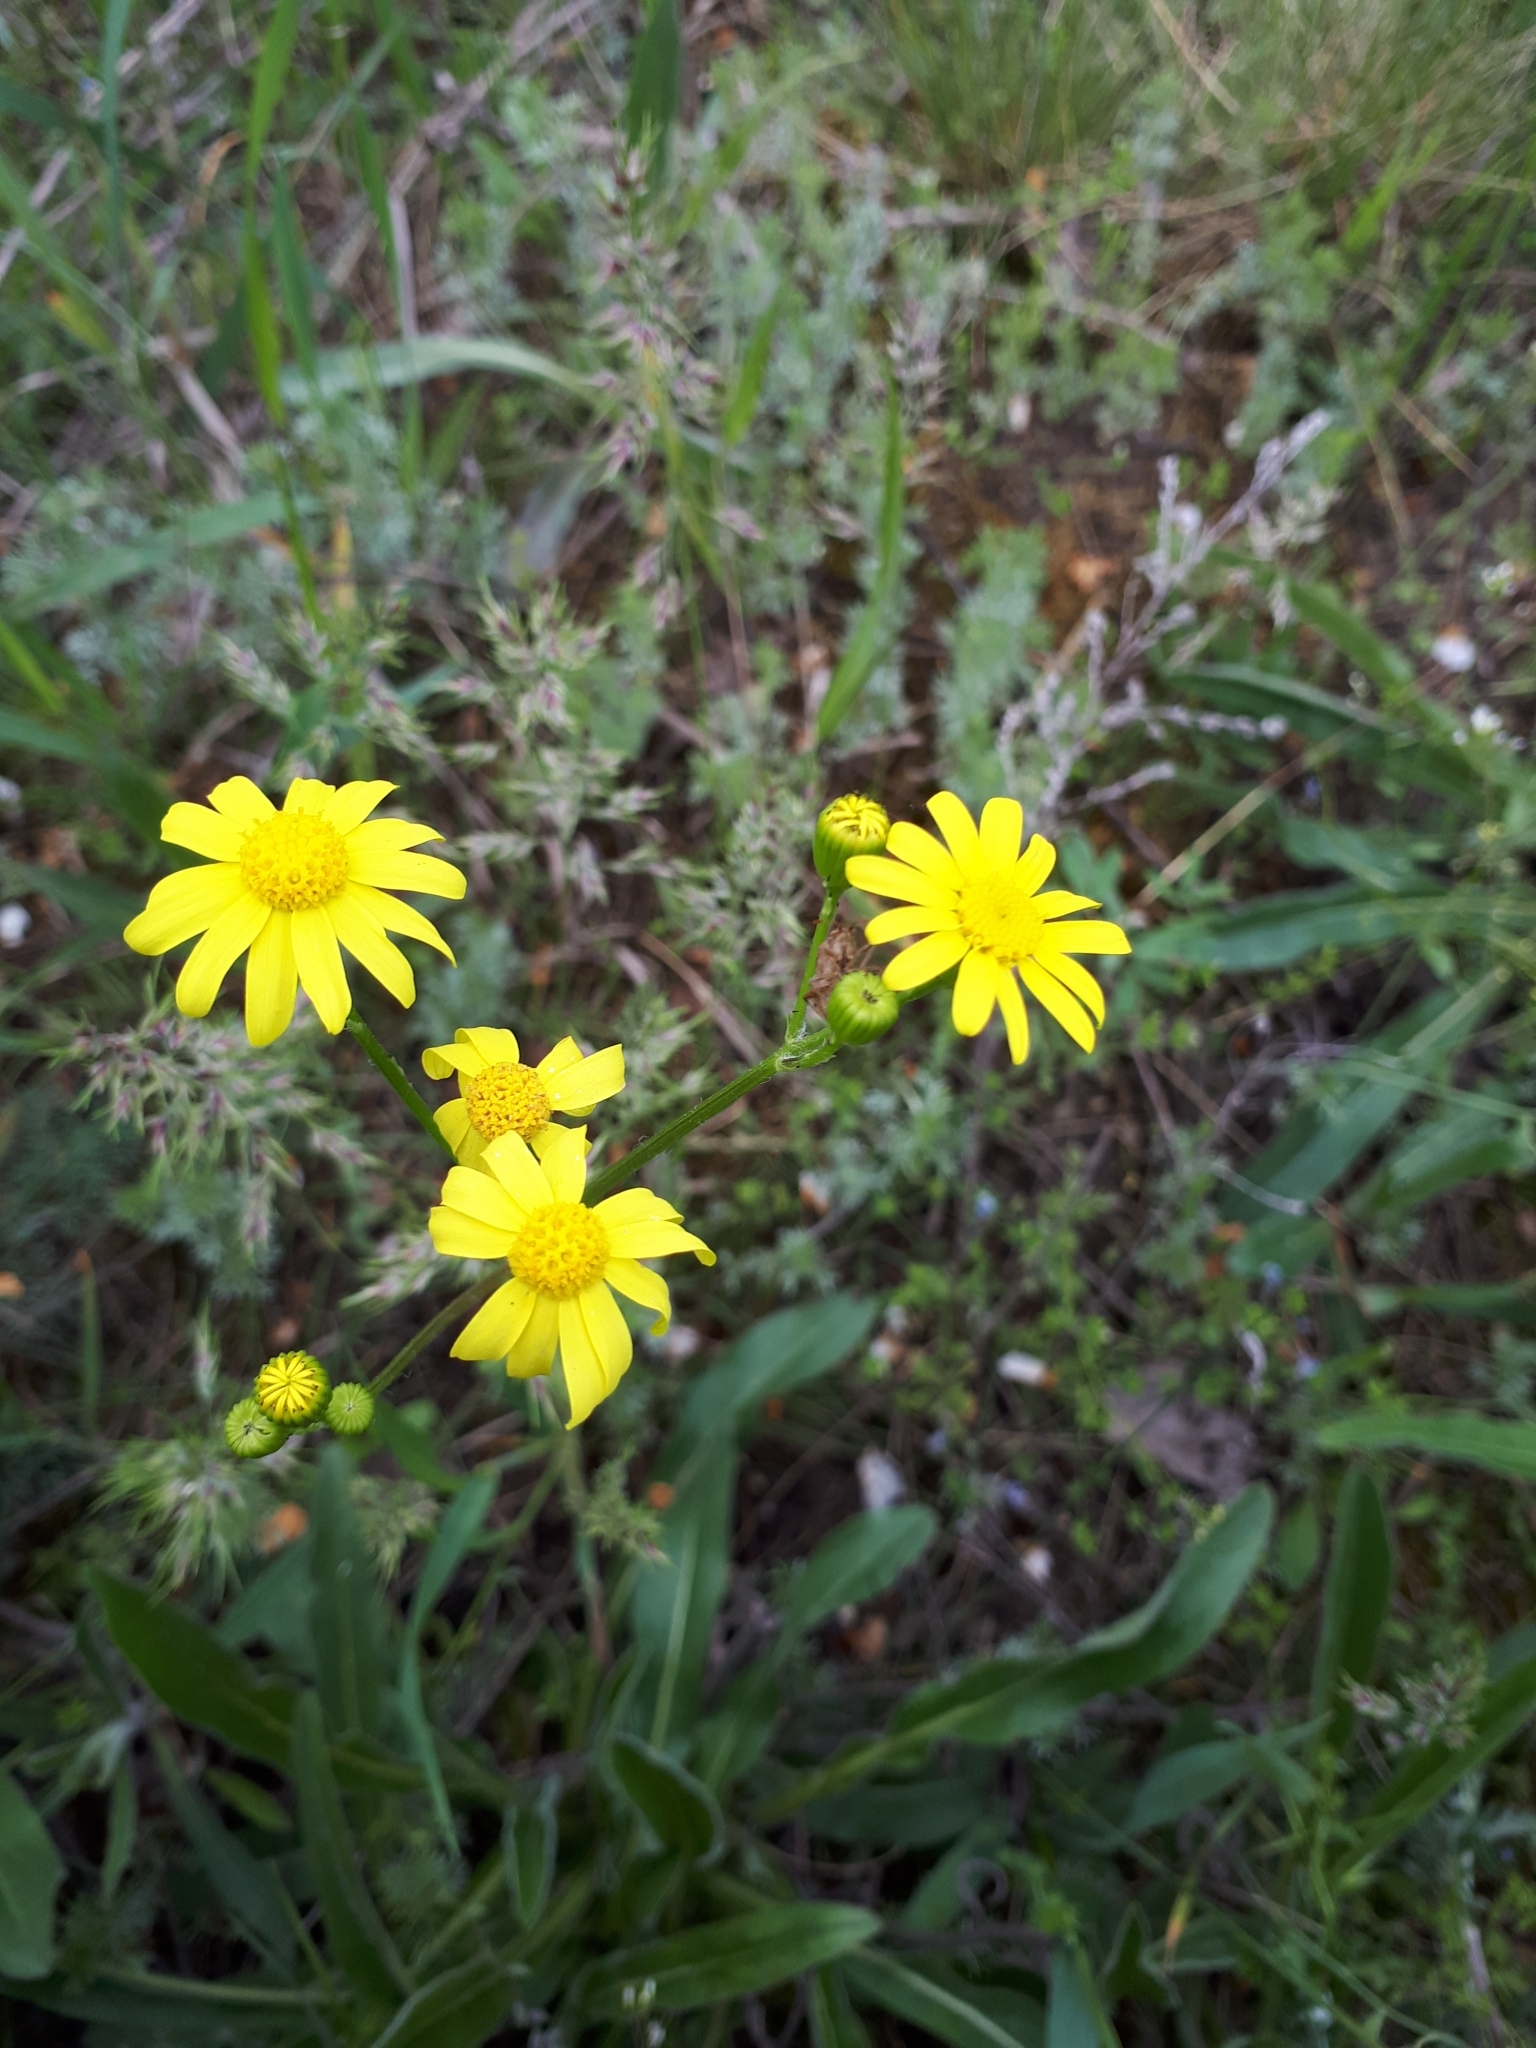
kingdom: Plantae
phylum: Tracheophyta
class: Magnoliopsida
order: Asterales
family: Asteraceae
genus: Senecio
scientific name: Senecio vernalis
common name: Eastern groundsel
